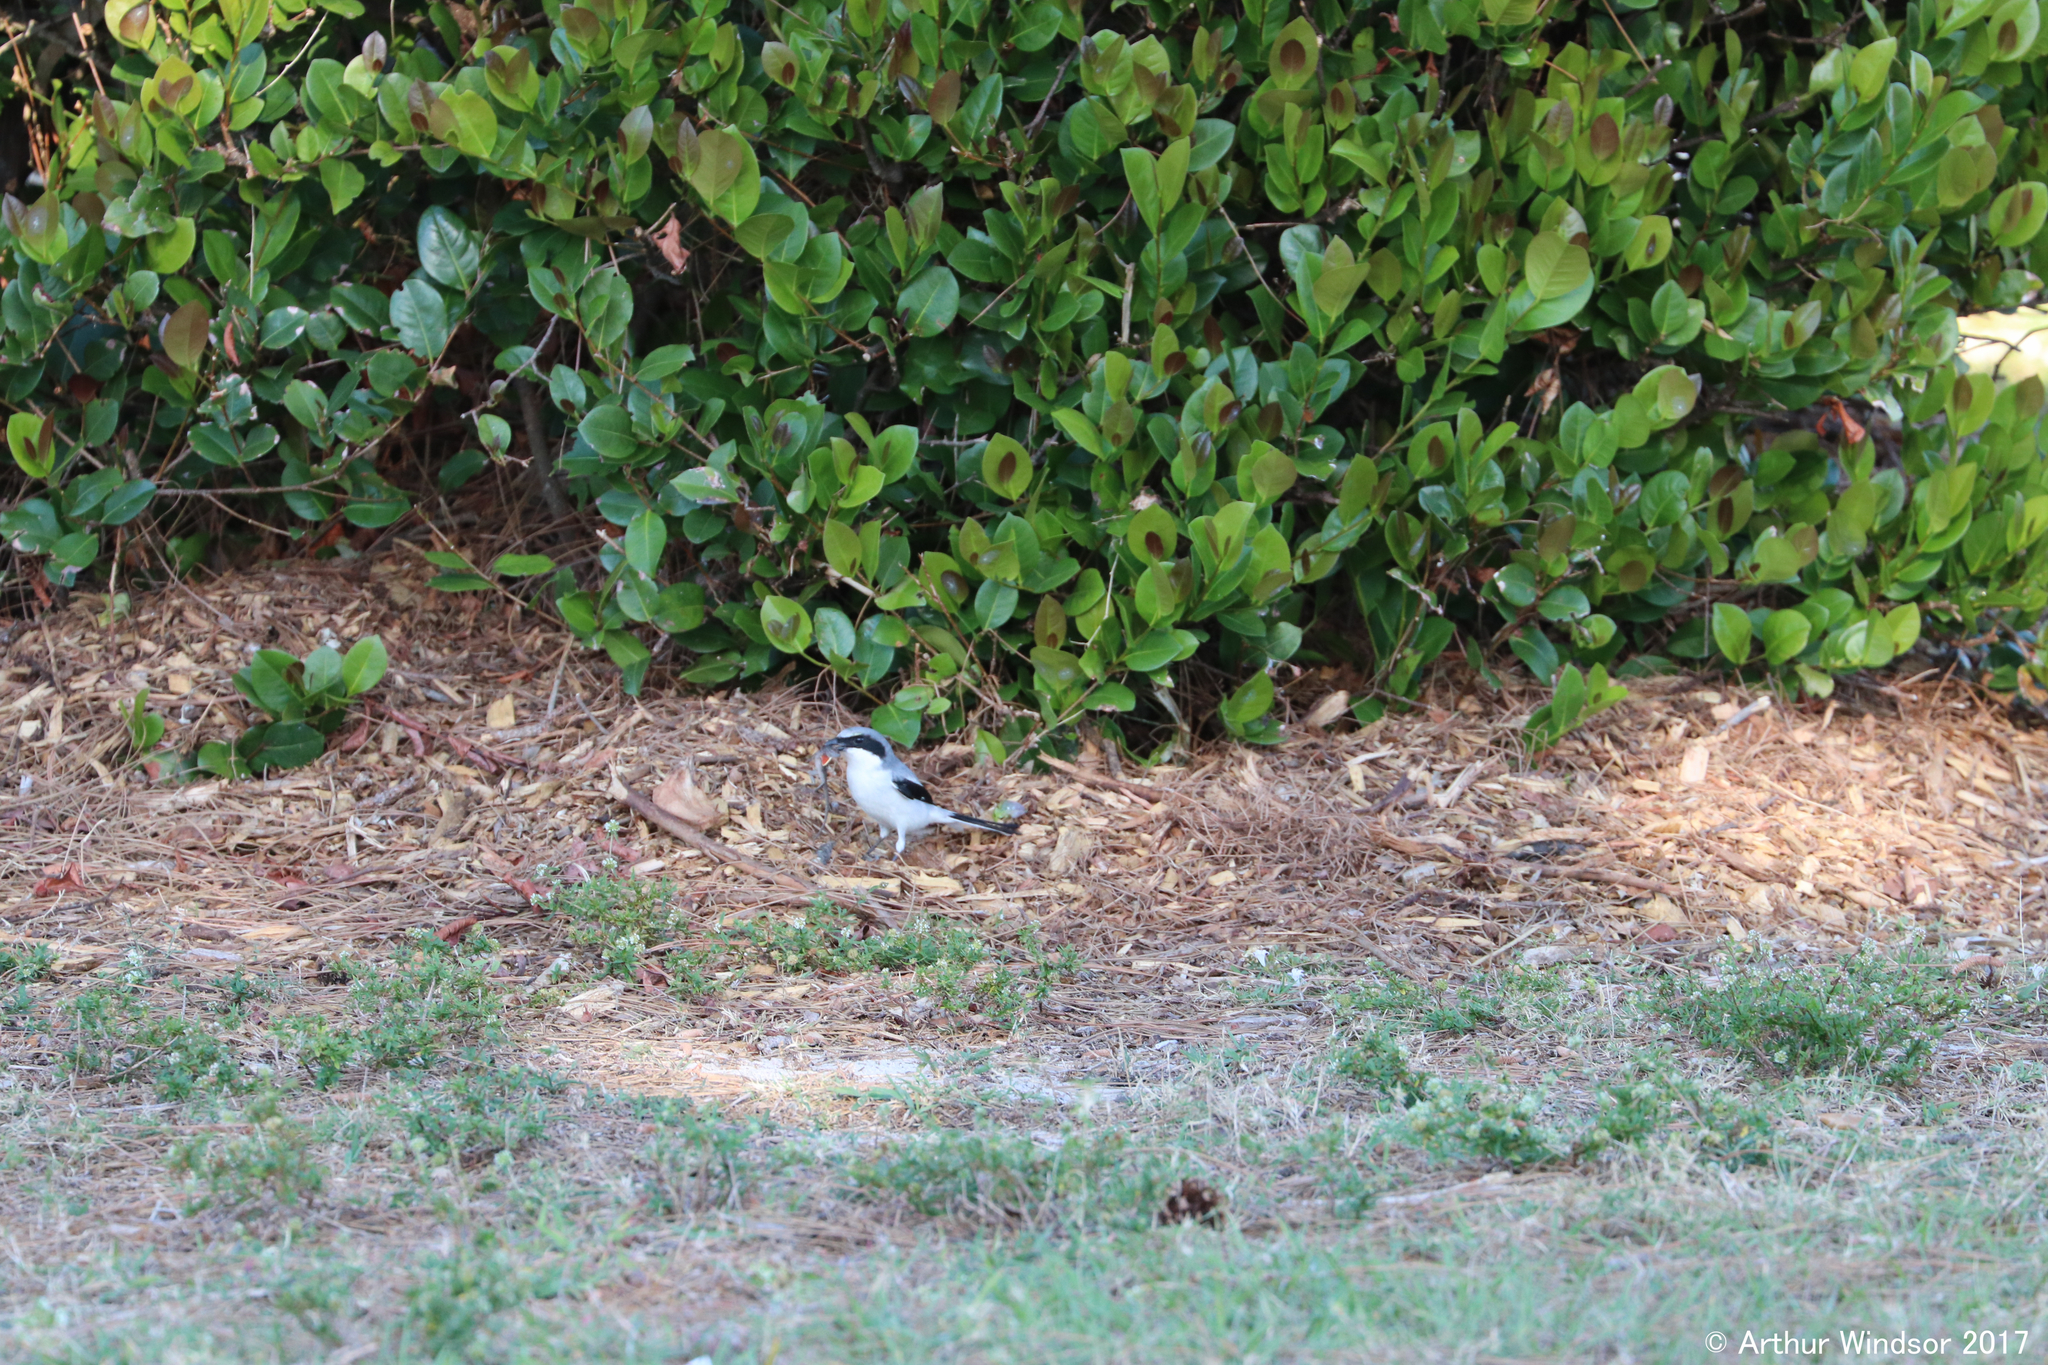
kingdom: Animalia
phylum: Chordata
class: Aves
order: Passeriformes
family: Laniidae
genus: Lanius
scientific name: Lanius ludovicianus
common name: Loggerhead shrike
